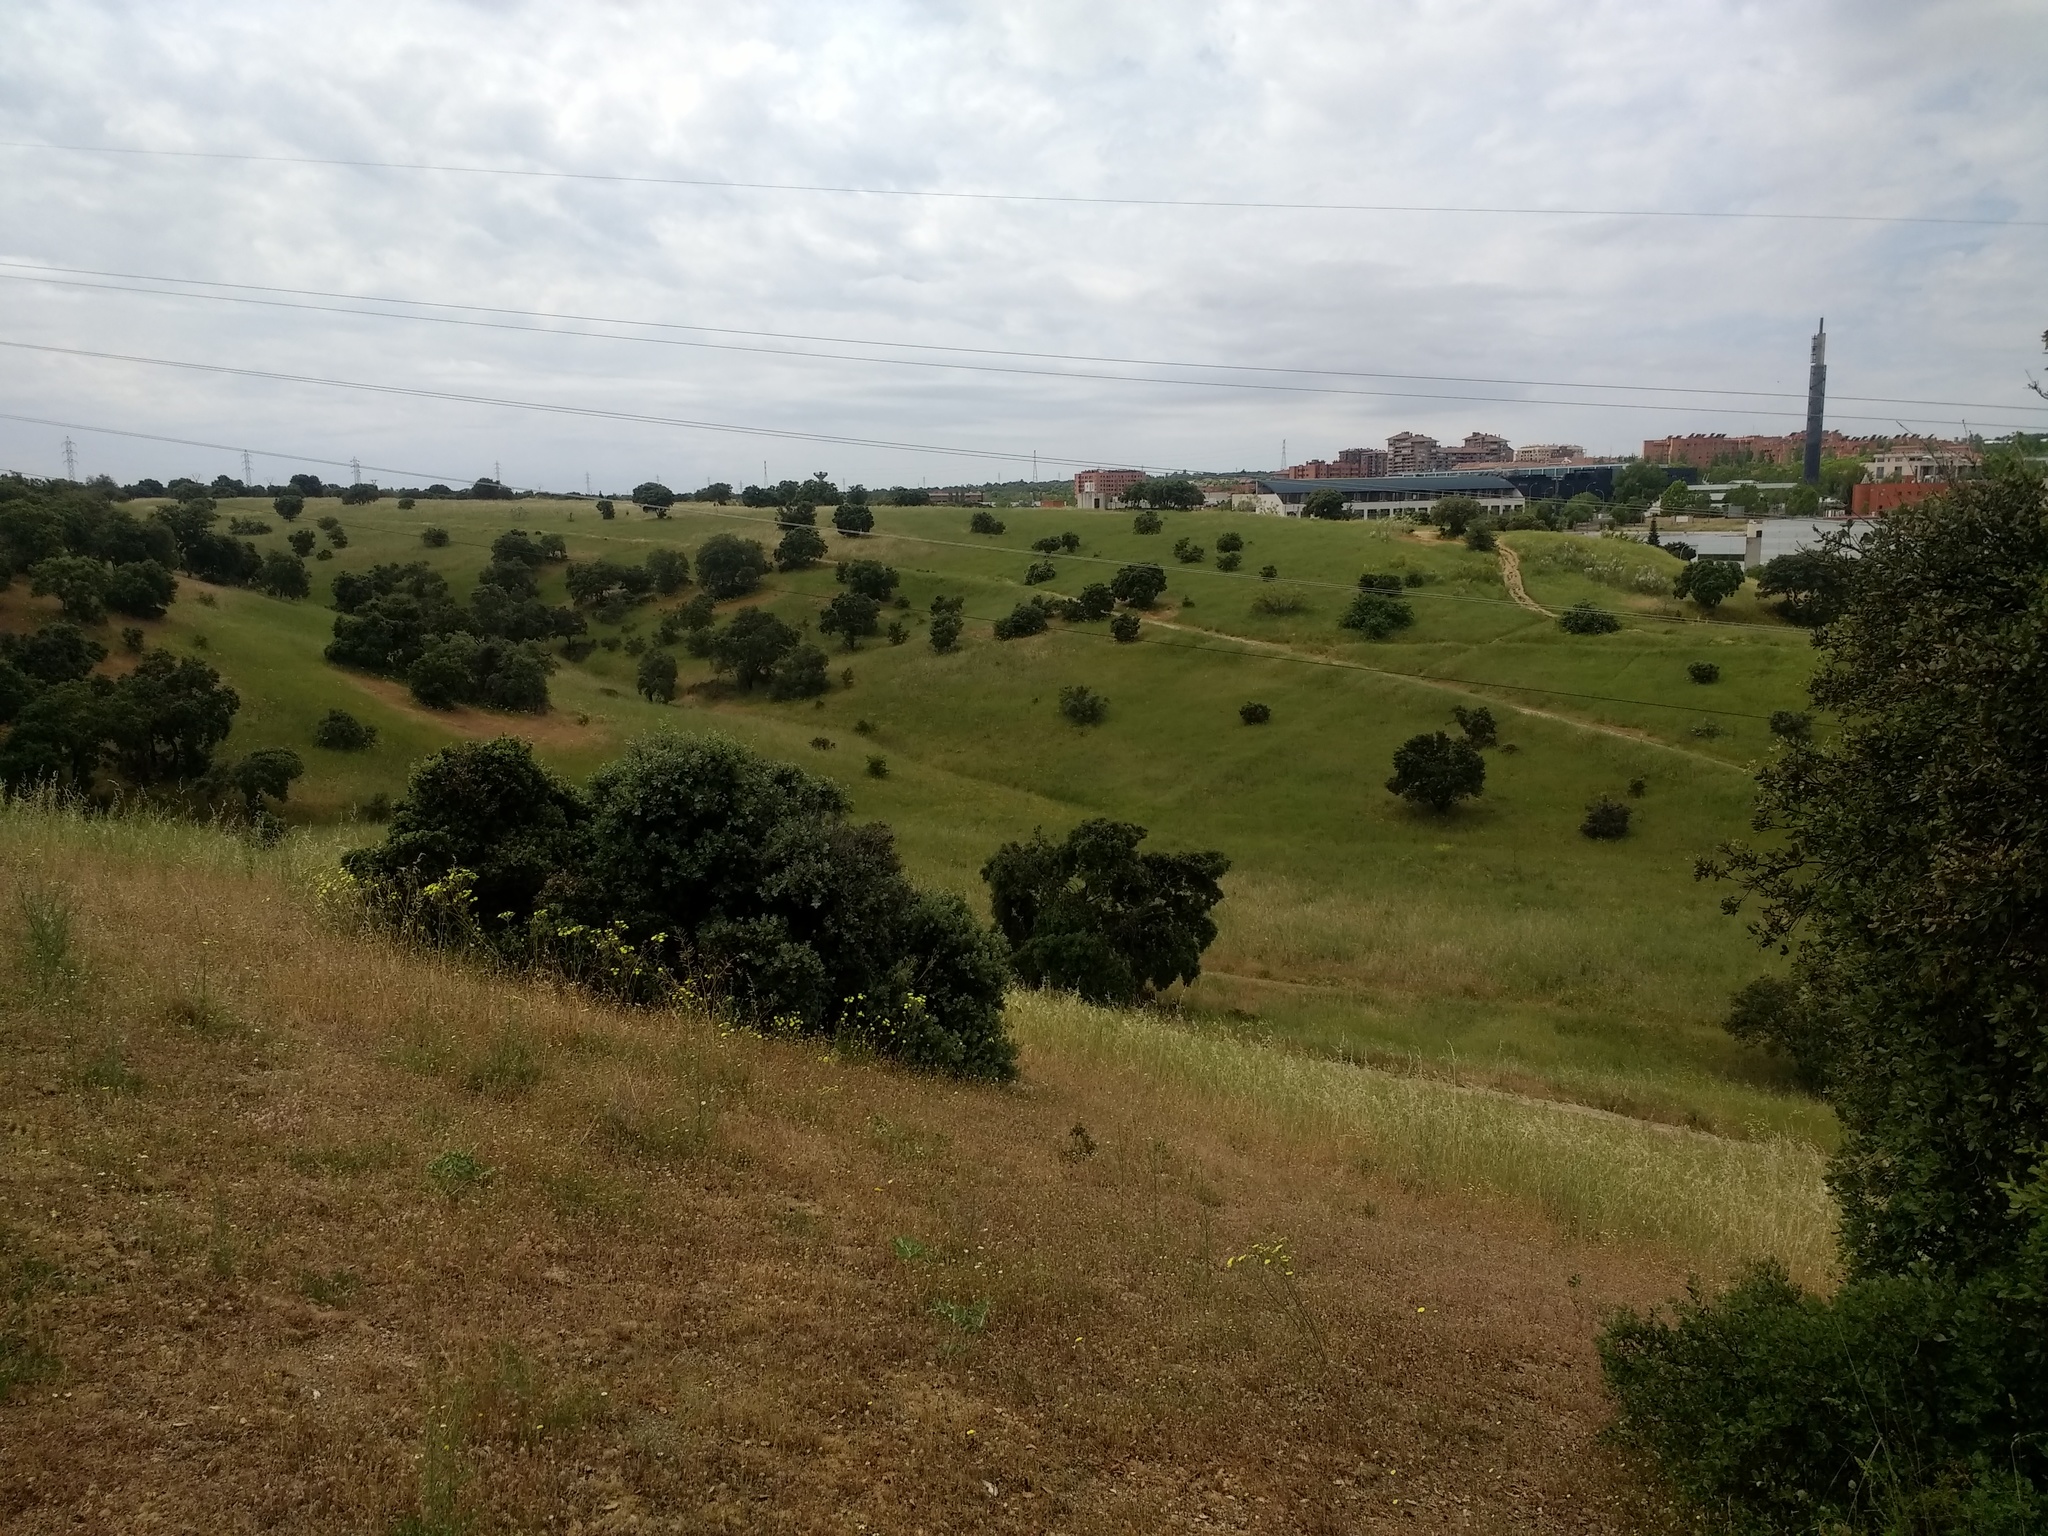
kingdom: Plantae
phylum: Tracheophyta
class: Magnoliopsida
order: Fagales
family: Fagaceae
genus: Quercus
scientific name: Quercus rotundifolia
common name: Holm oak
